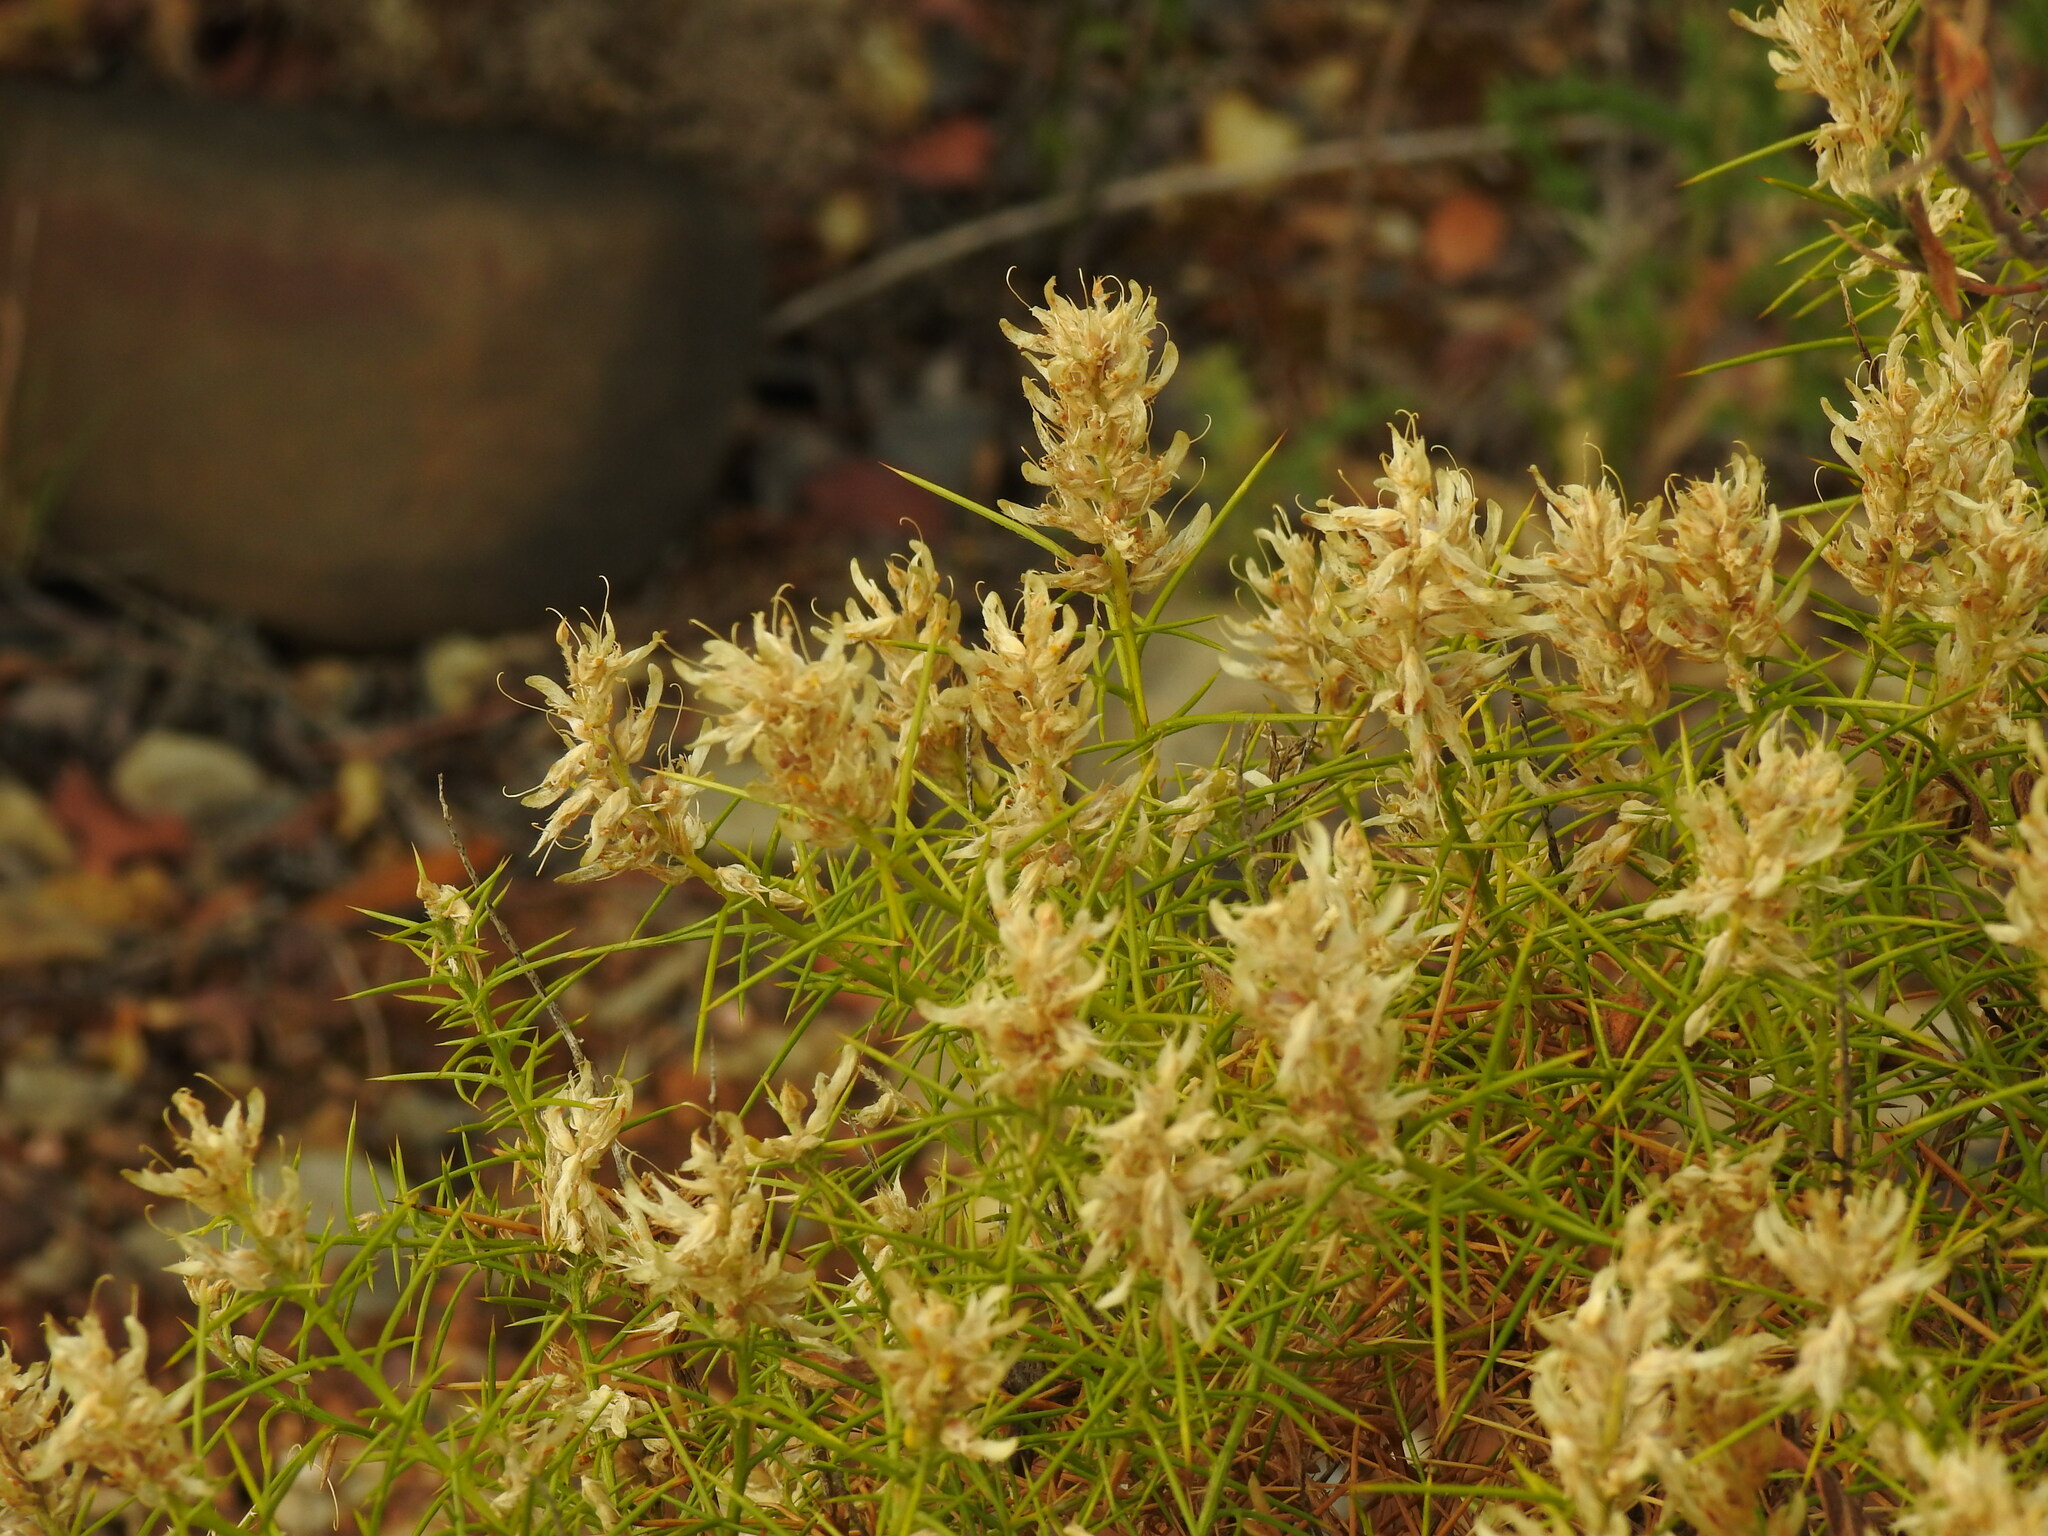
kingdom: Plantae
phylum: Tracheophyta
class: Magnoliopsida
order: Fabales
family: Fabaceae
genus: Genista
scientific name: Genista hirsuta
